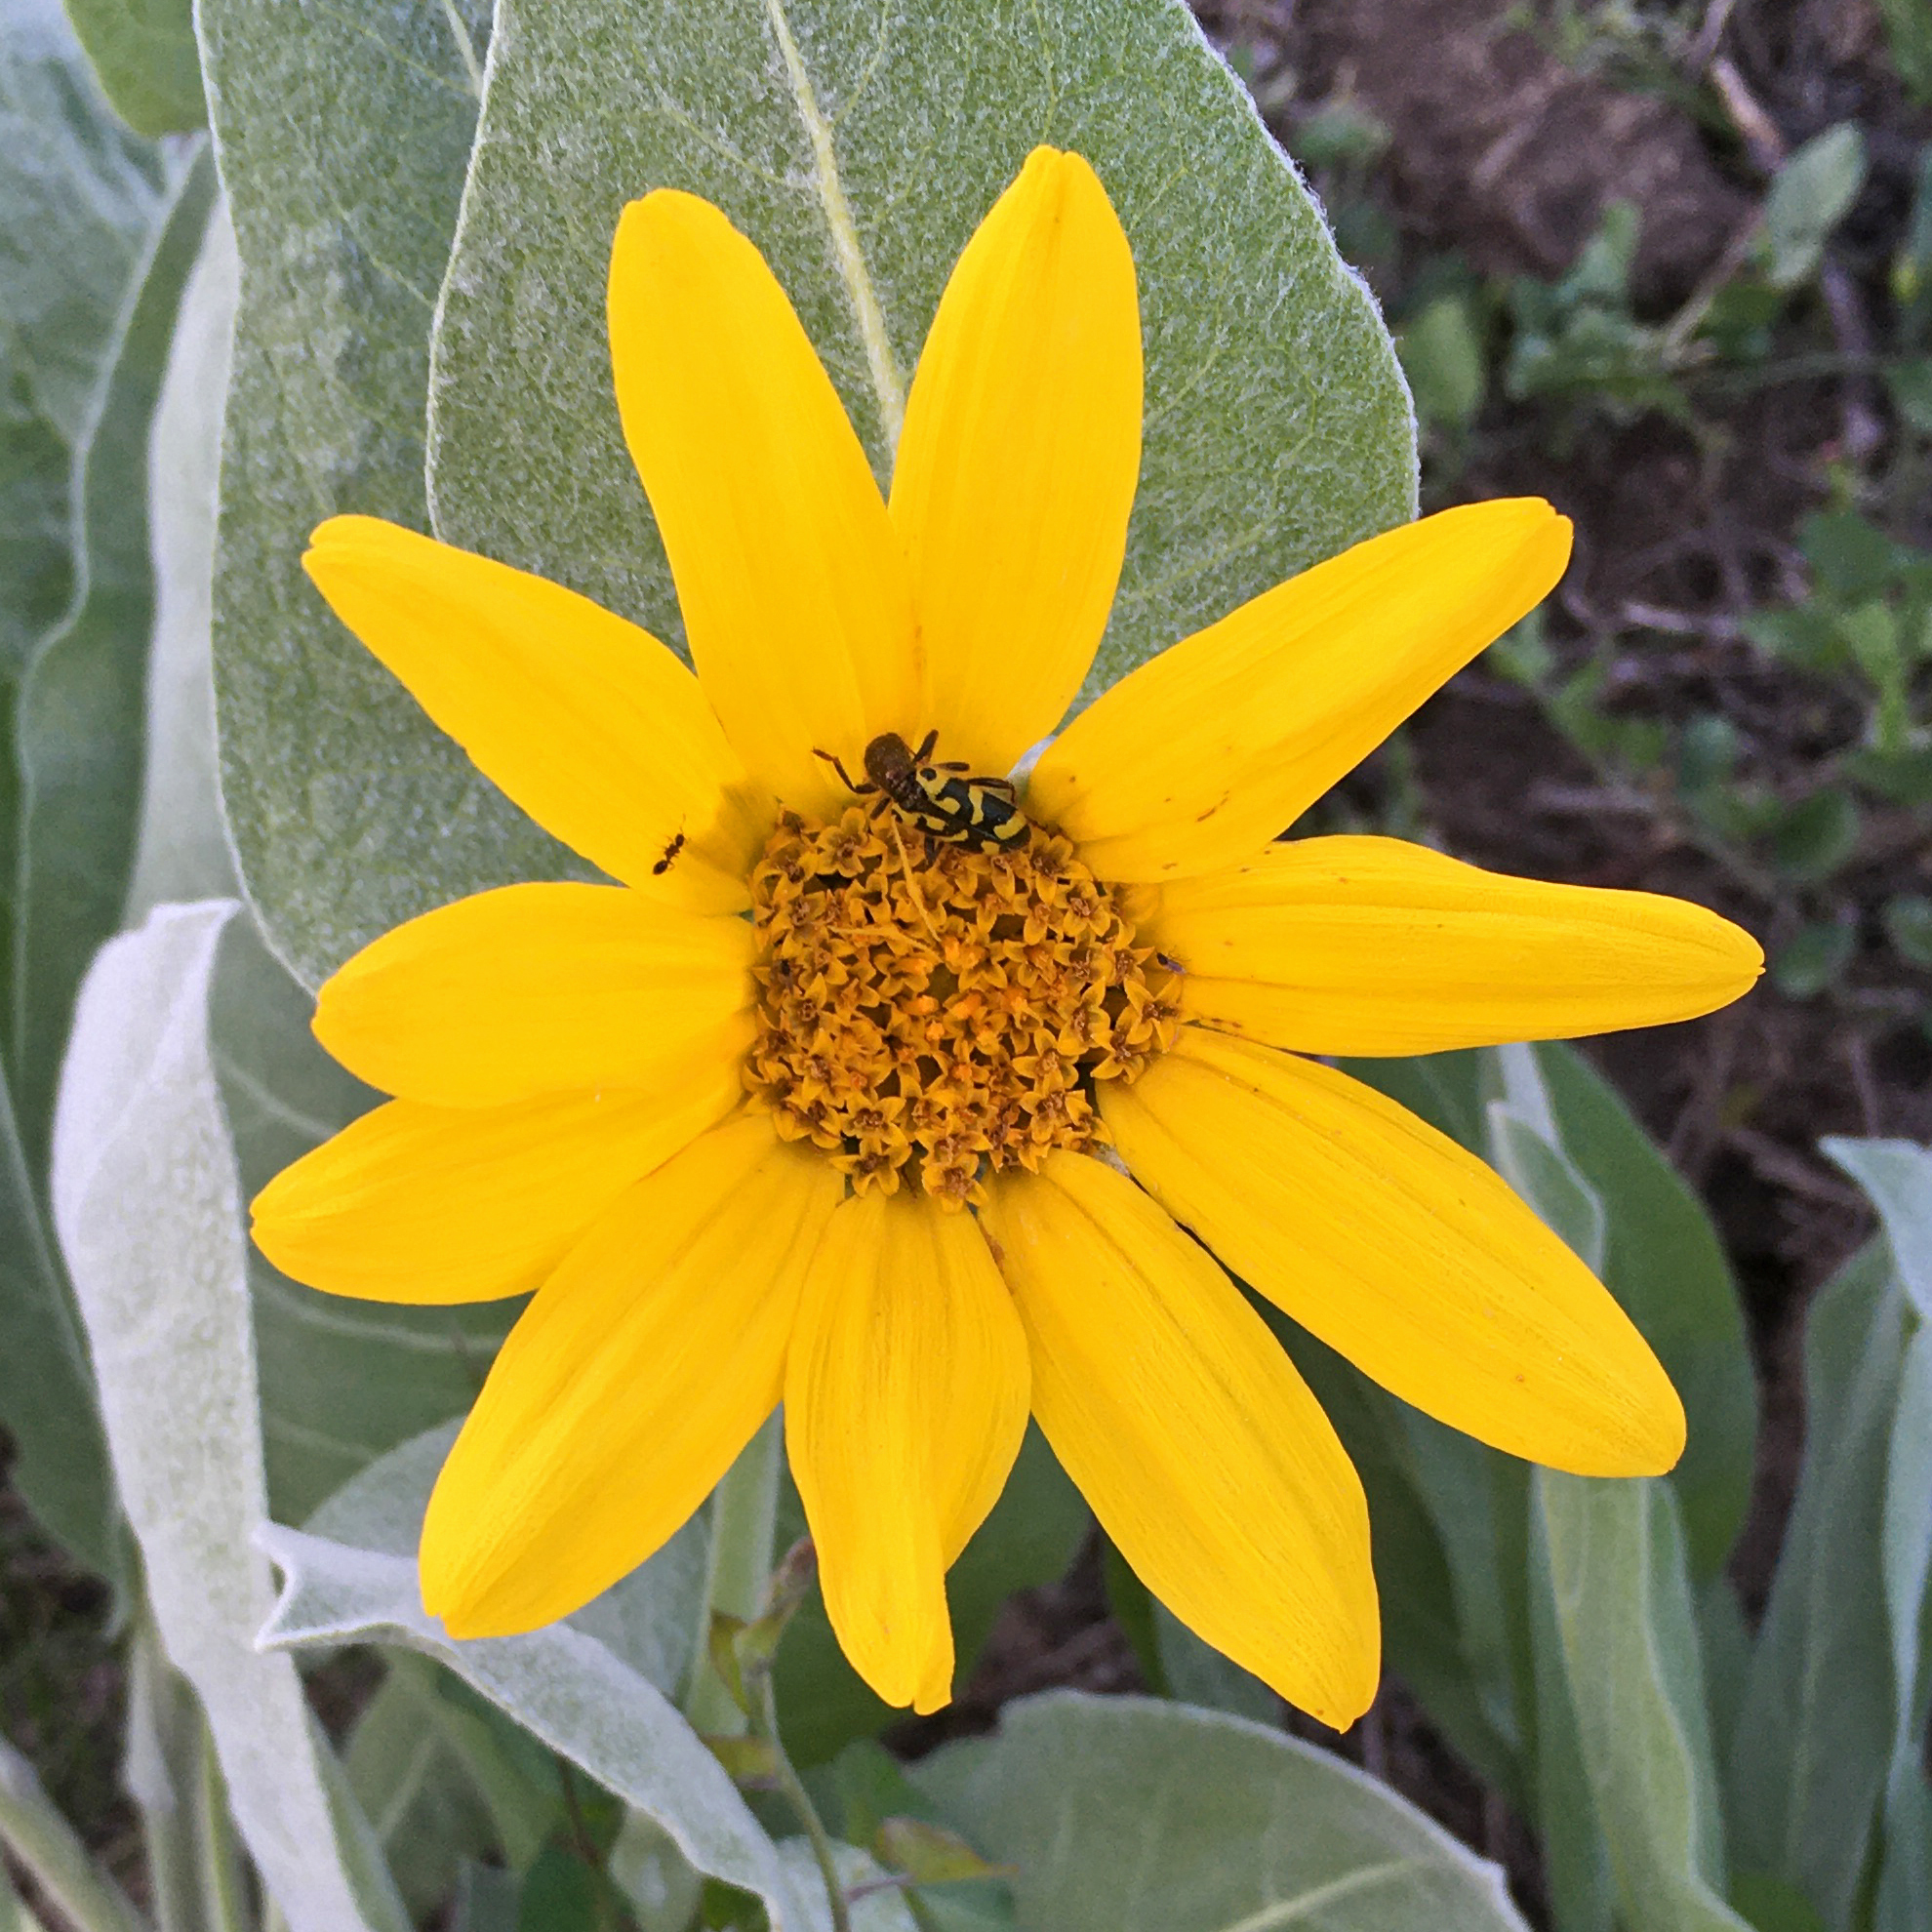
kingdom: Plantae
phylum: Tracheophyta
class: Magnoliopsida
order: Asterales
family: Asteraceae
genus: Wyethia
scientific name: Wyethia mollis
